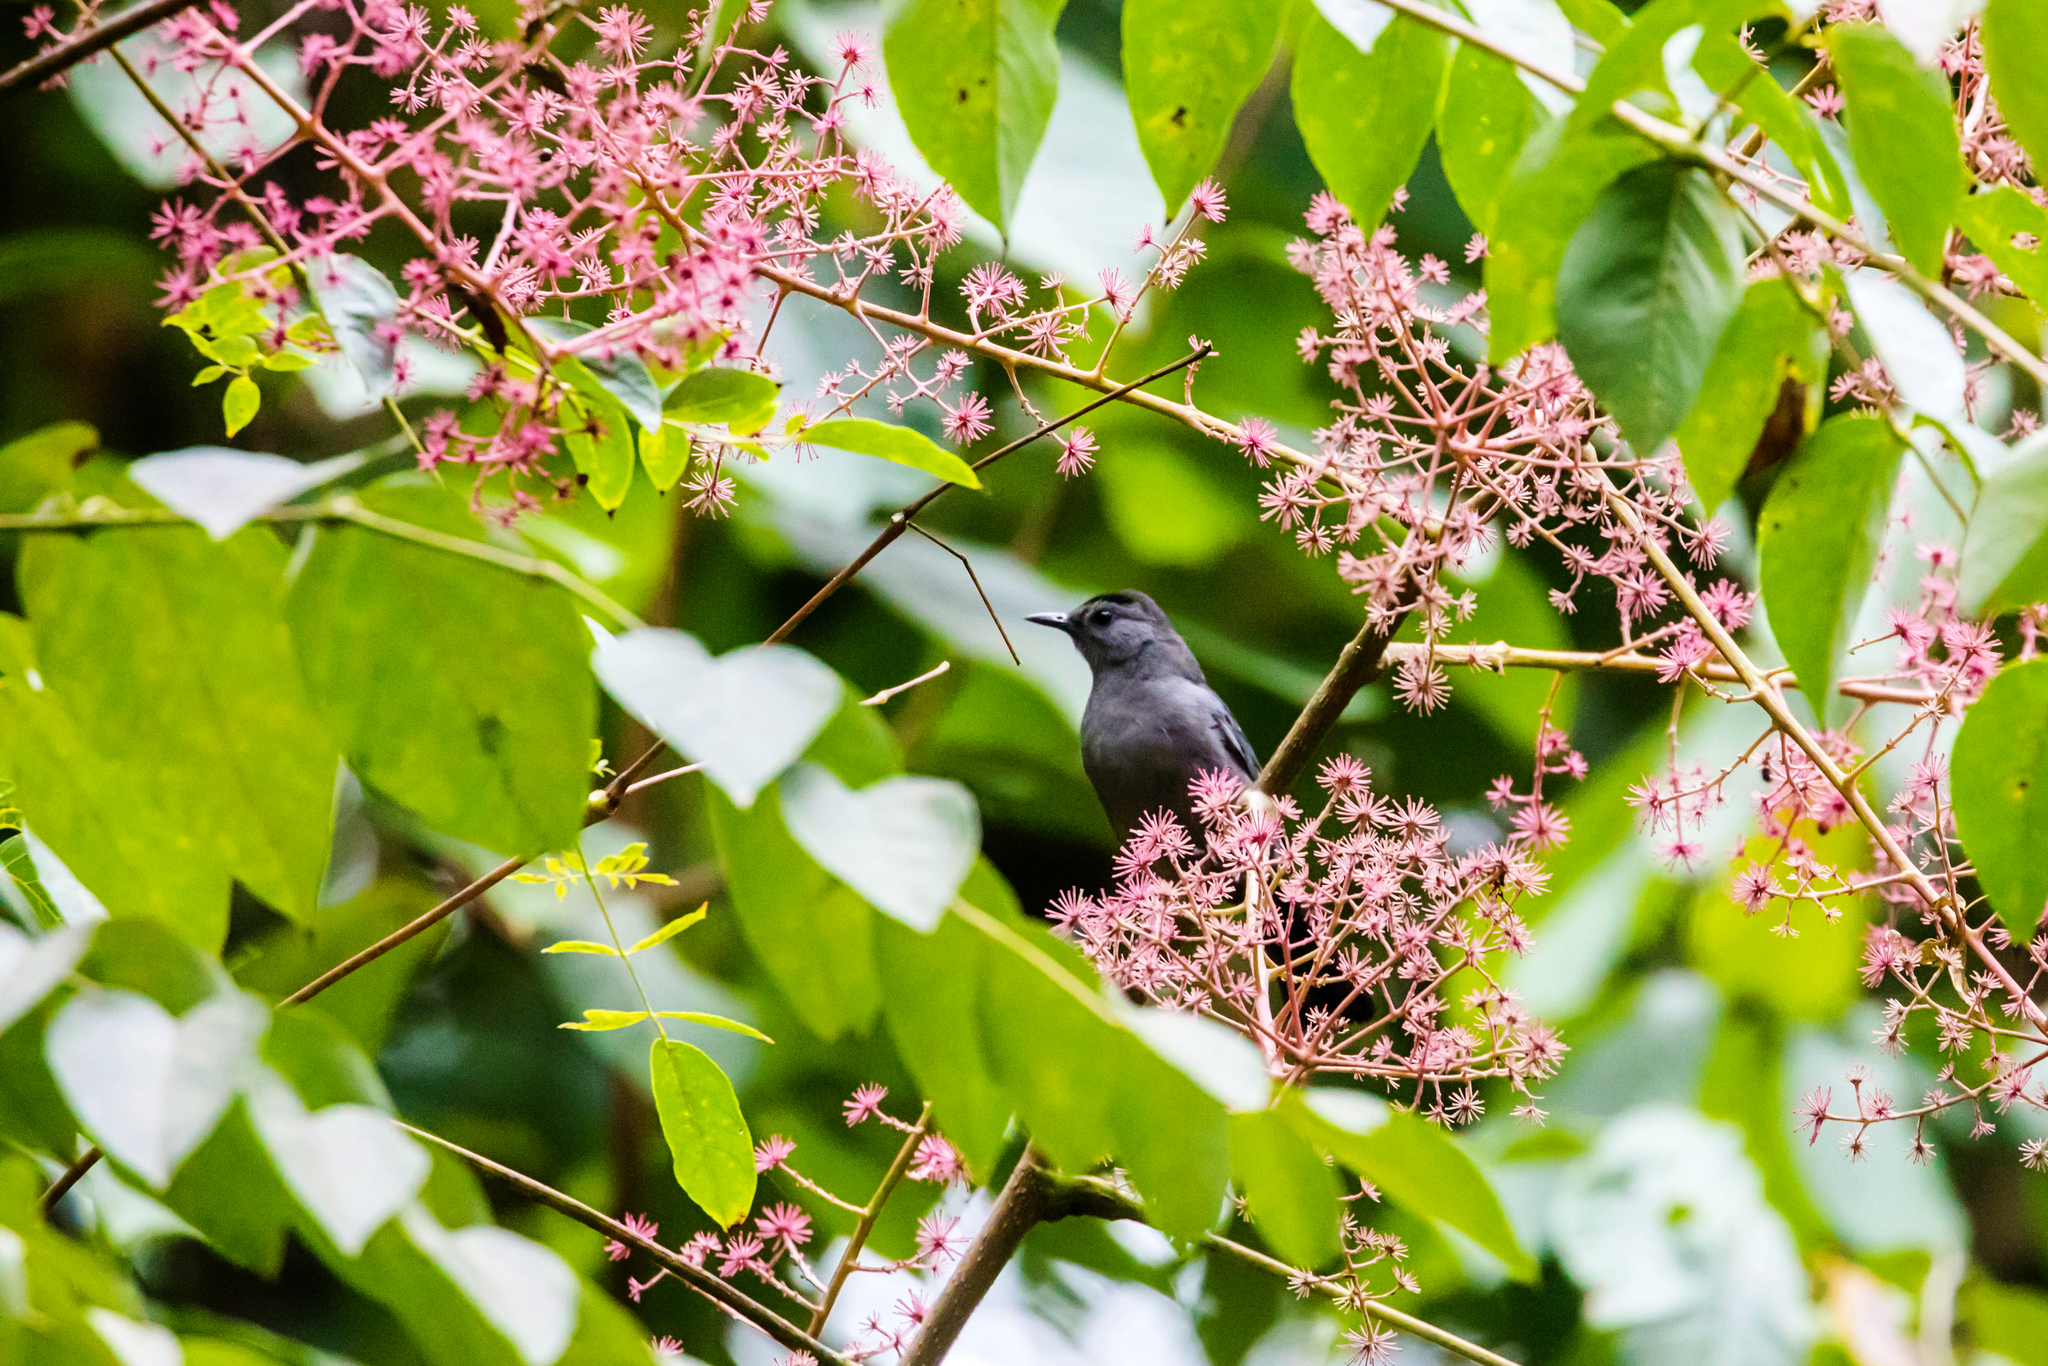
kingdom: Animalia
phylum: Chordata
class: Aves
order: Passeriformes
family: Mimidae
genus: Dumetella
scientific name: Dumetella carolinensis
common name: Gray catbird
